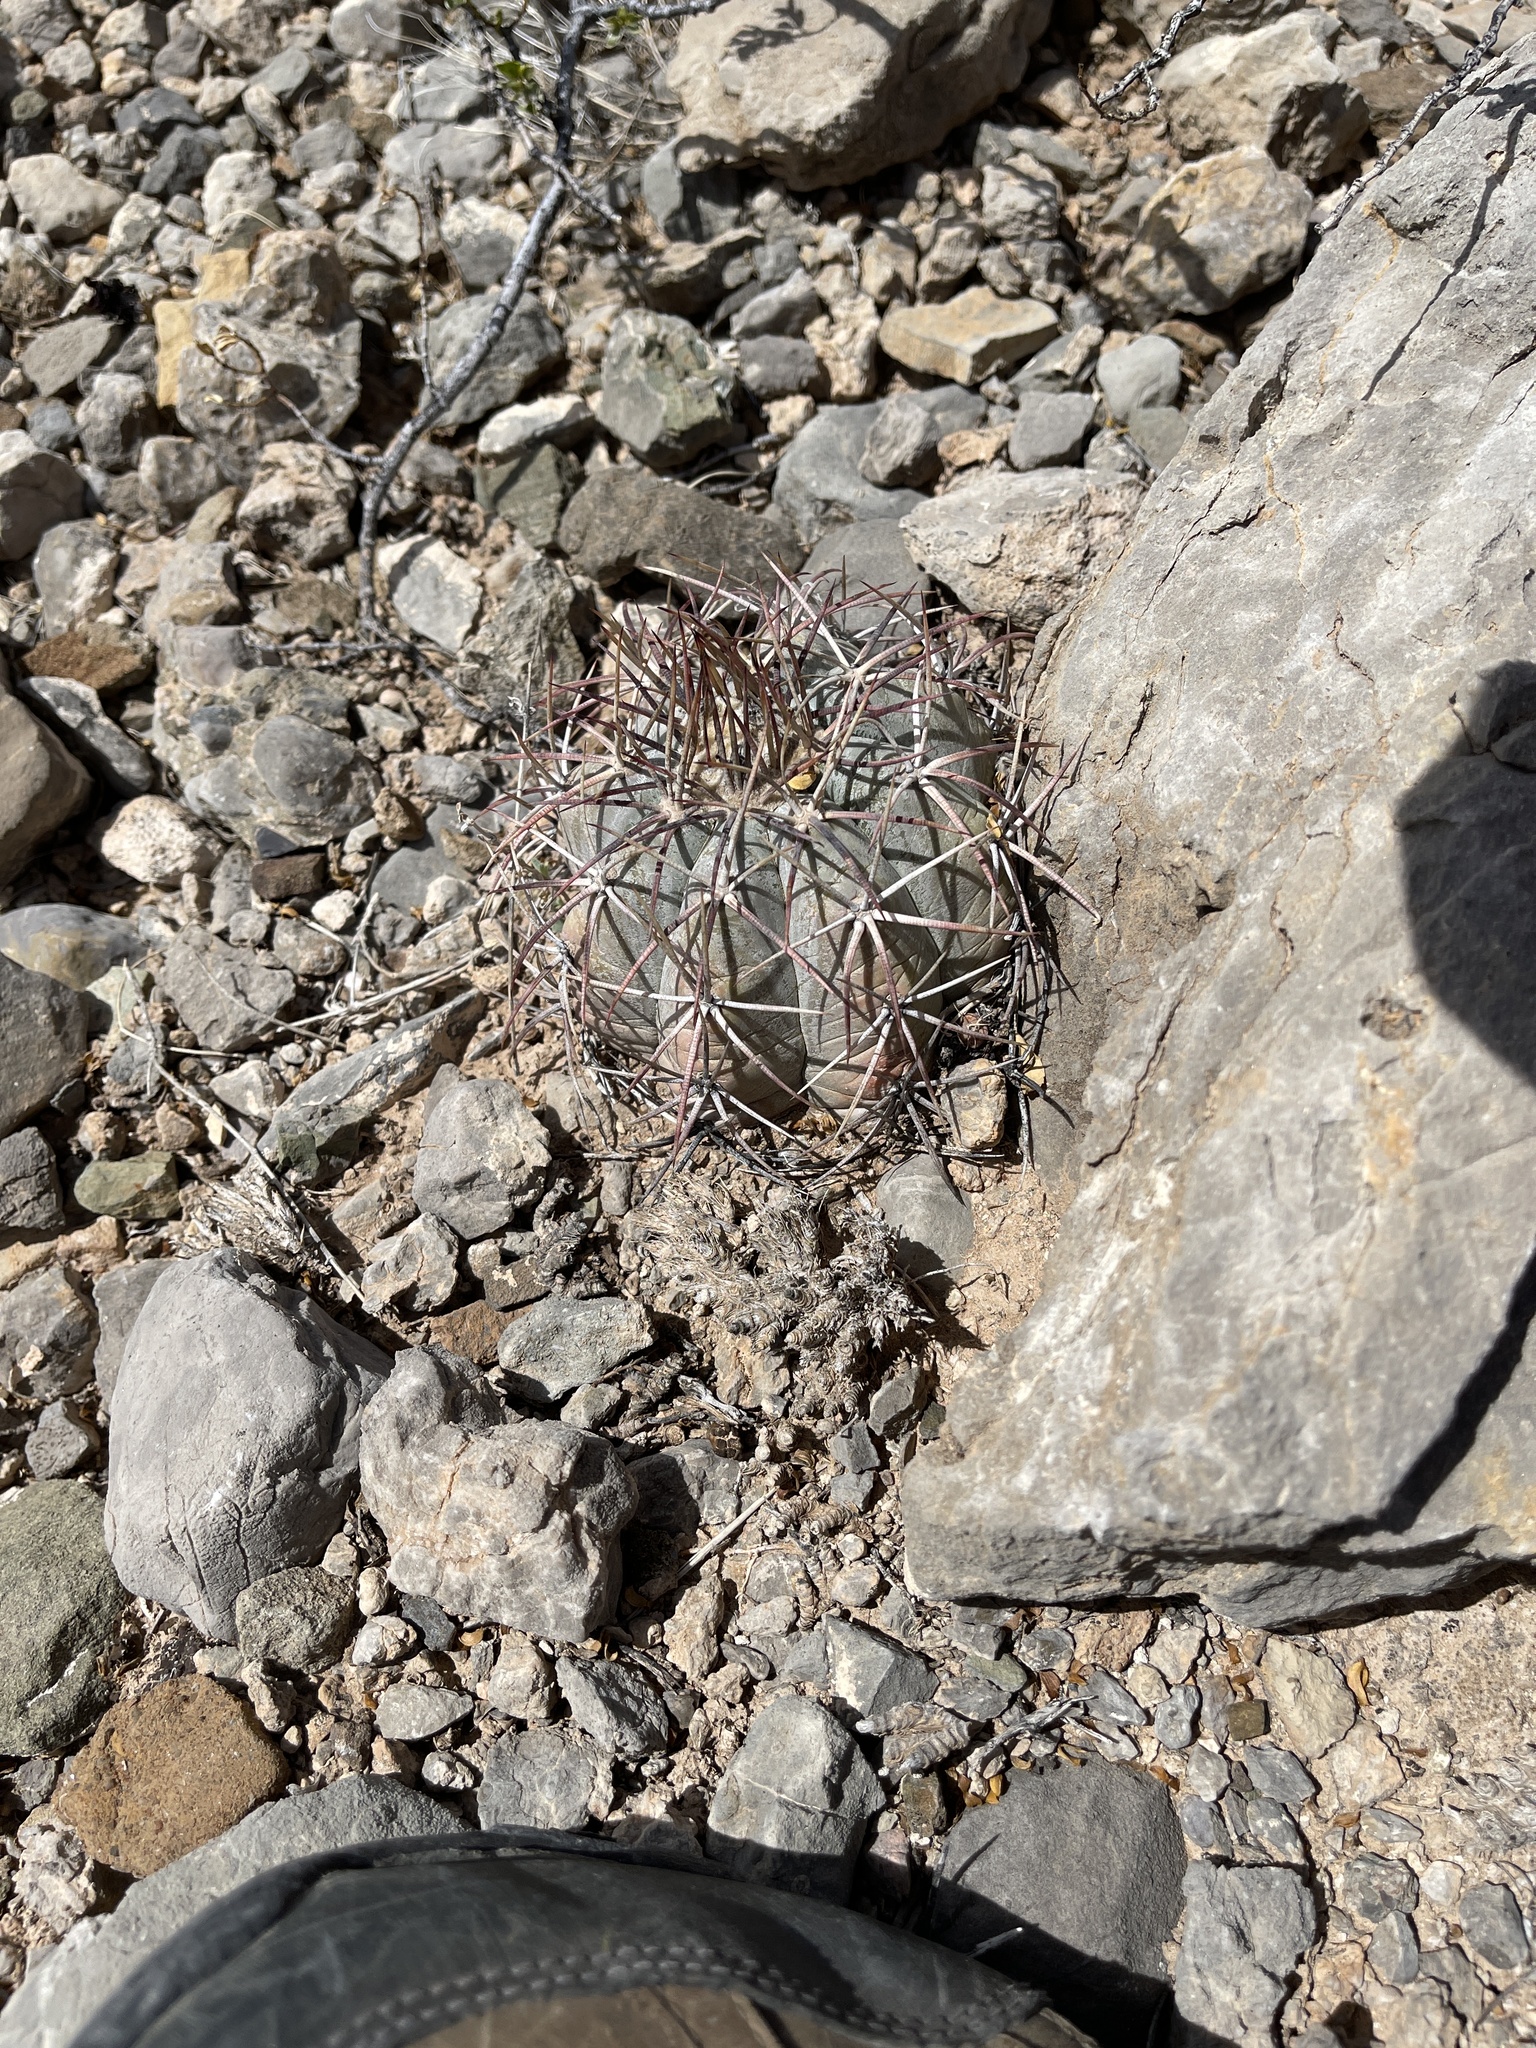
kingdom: Plantae
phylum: Tracheophyta
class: Magnoliopsida
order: Caryophyllales
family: Cactaceae
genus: Echinocactus
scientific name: Echinocactus horizonthalonius
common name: Devilshead
